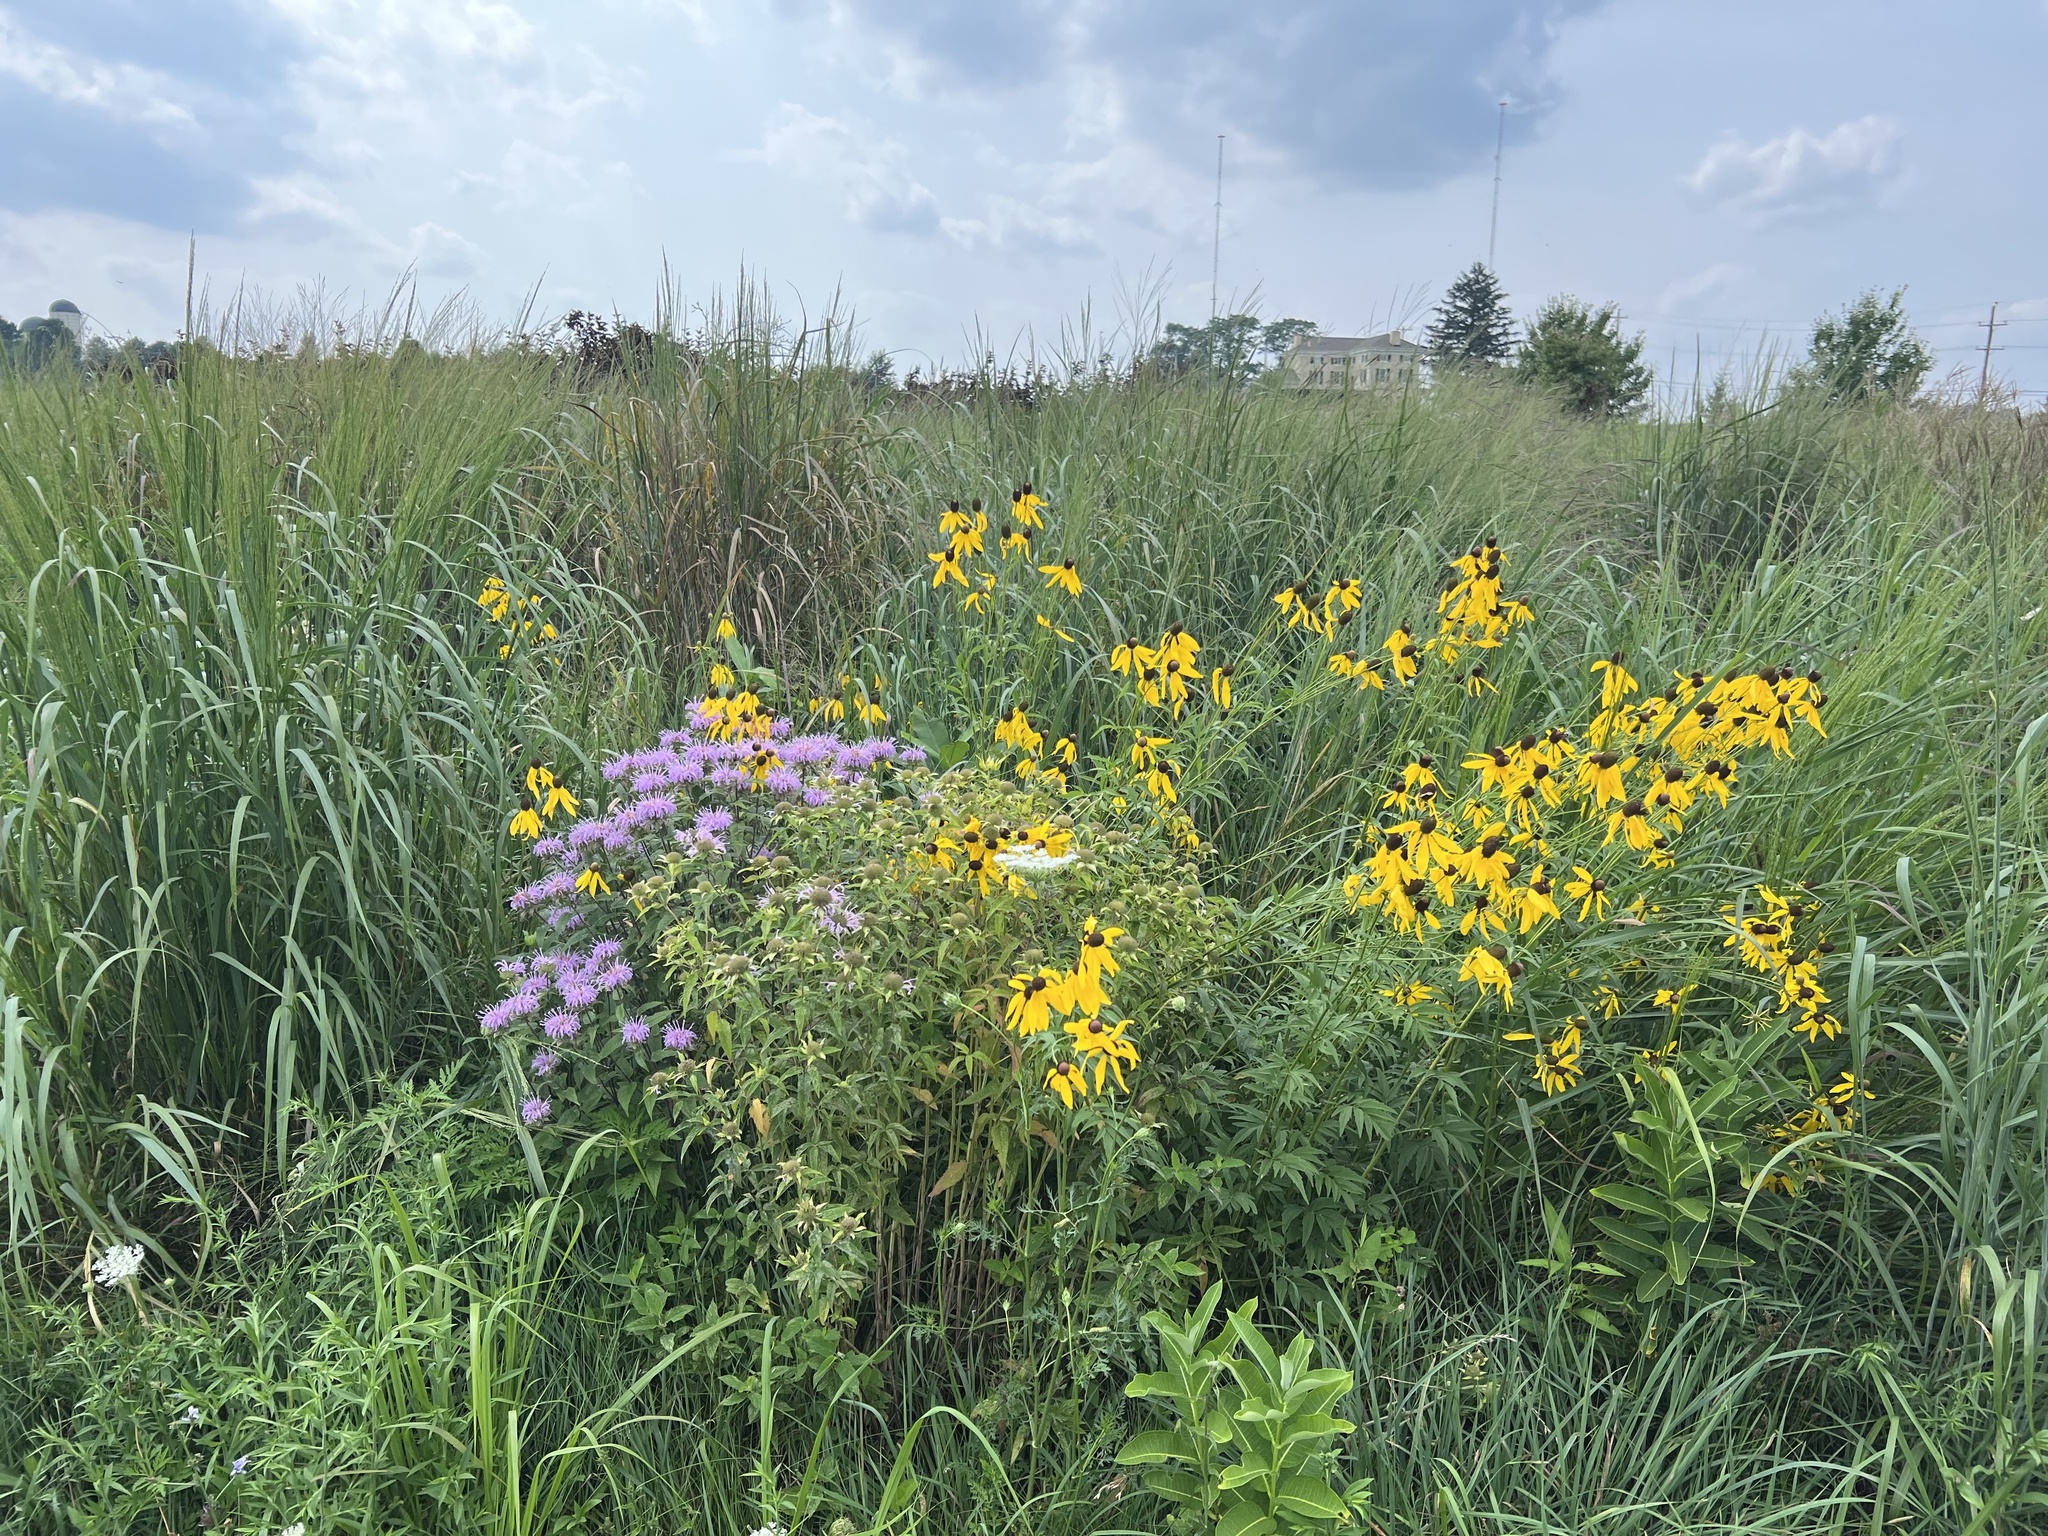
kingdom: Plantae
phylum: Tracheophyta
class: Magnoliopsida
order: Asterales
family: Asteraceae
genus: Ratibida
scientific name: Ratibida pinnata
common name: Drooping prairie-coneflower
